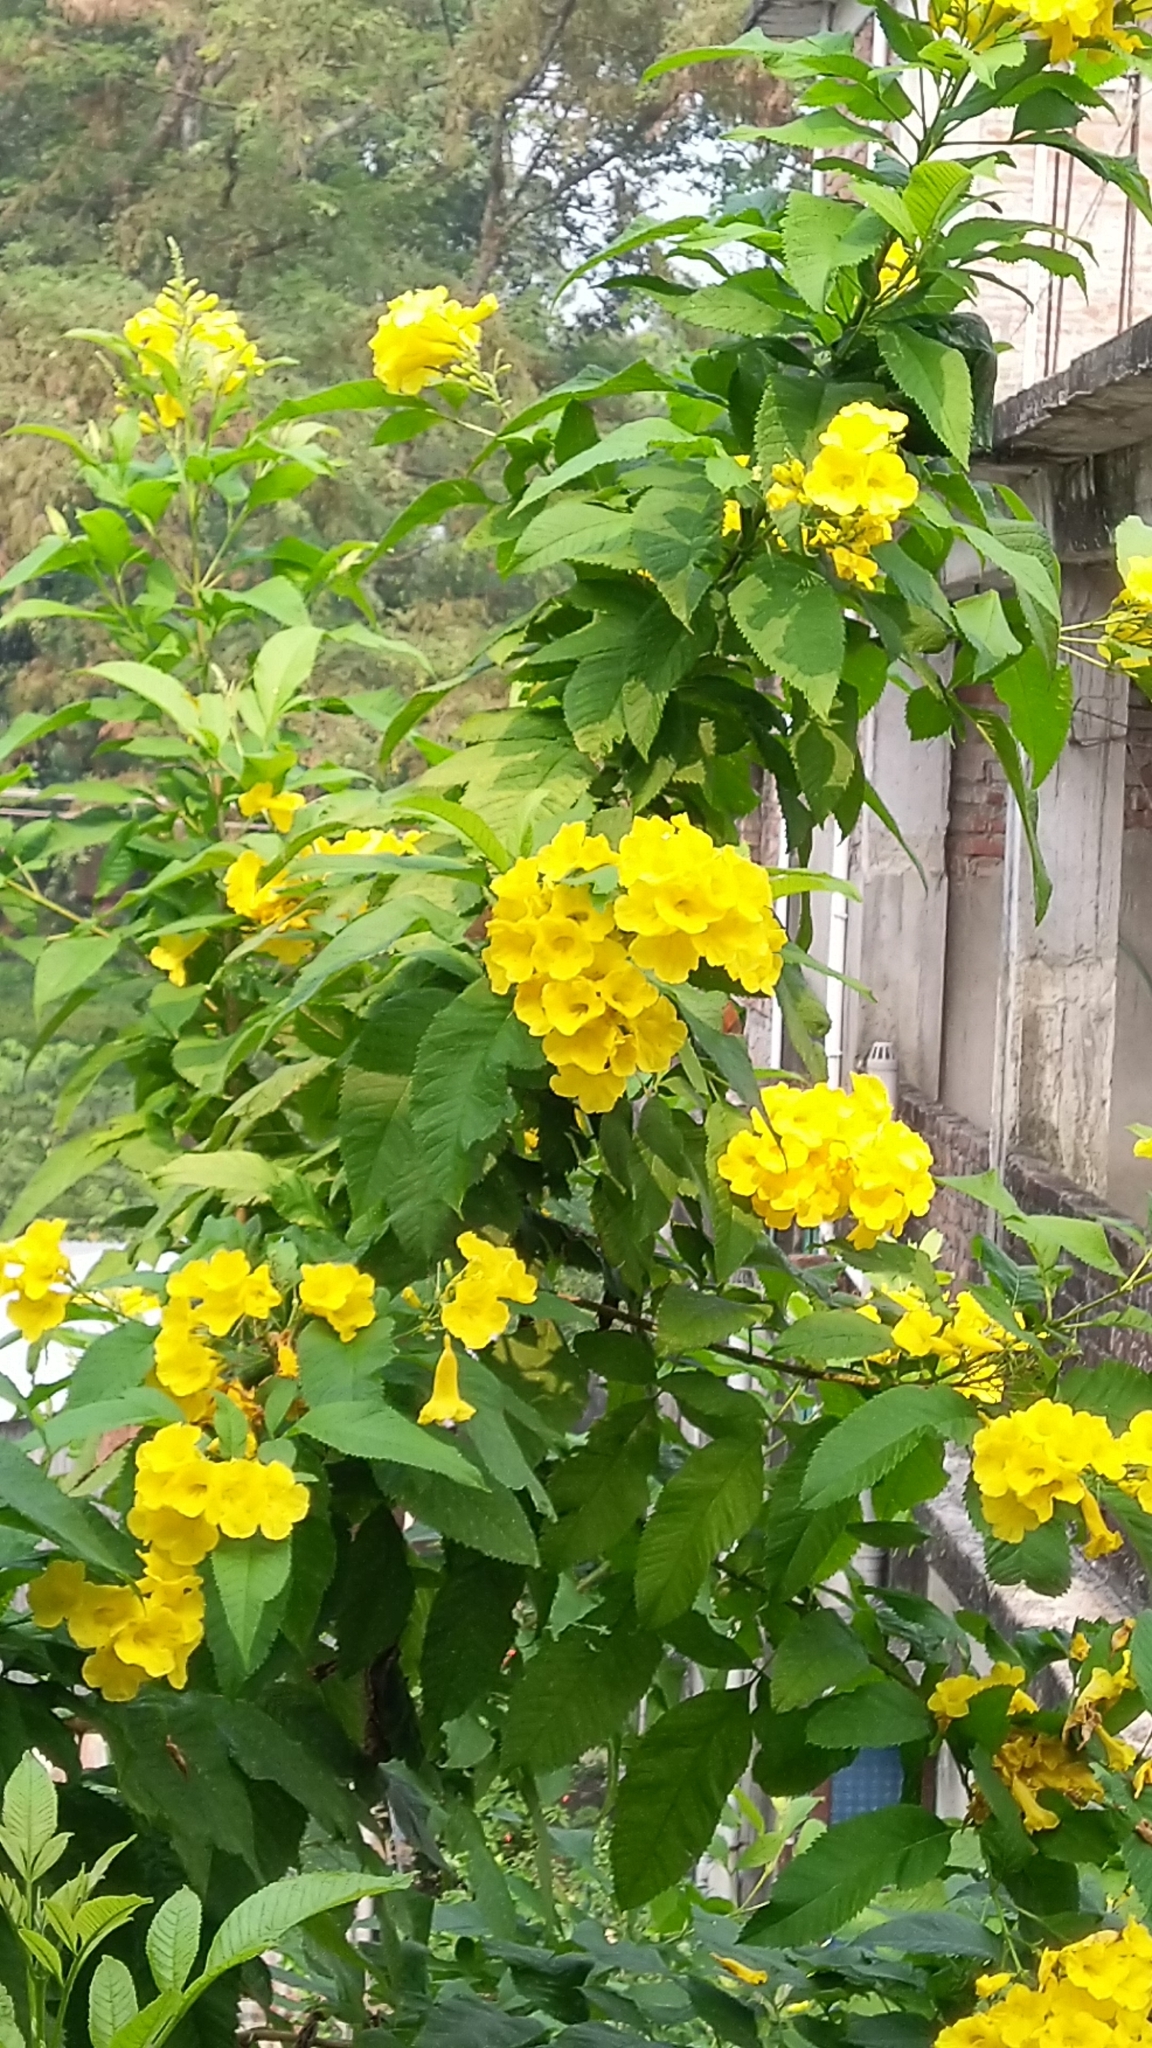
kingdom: Plantae
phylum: Tracheophyta
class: Magnoliopsida
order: Lamiales
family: Bignoniaceae
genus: Tecoma
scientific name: Tecoma stans
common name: Yellow trumpetbush
